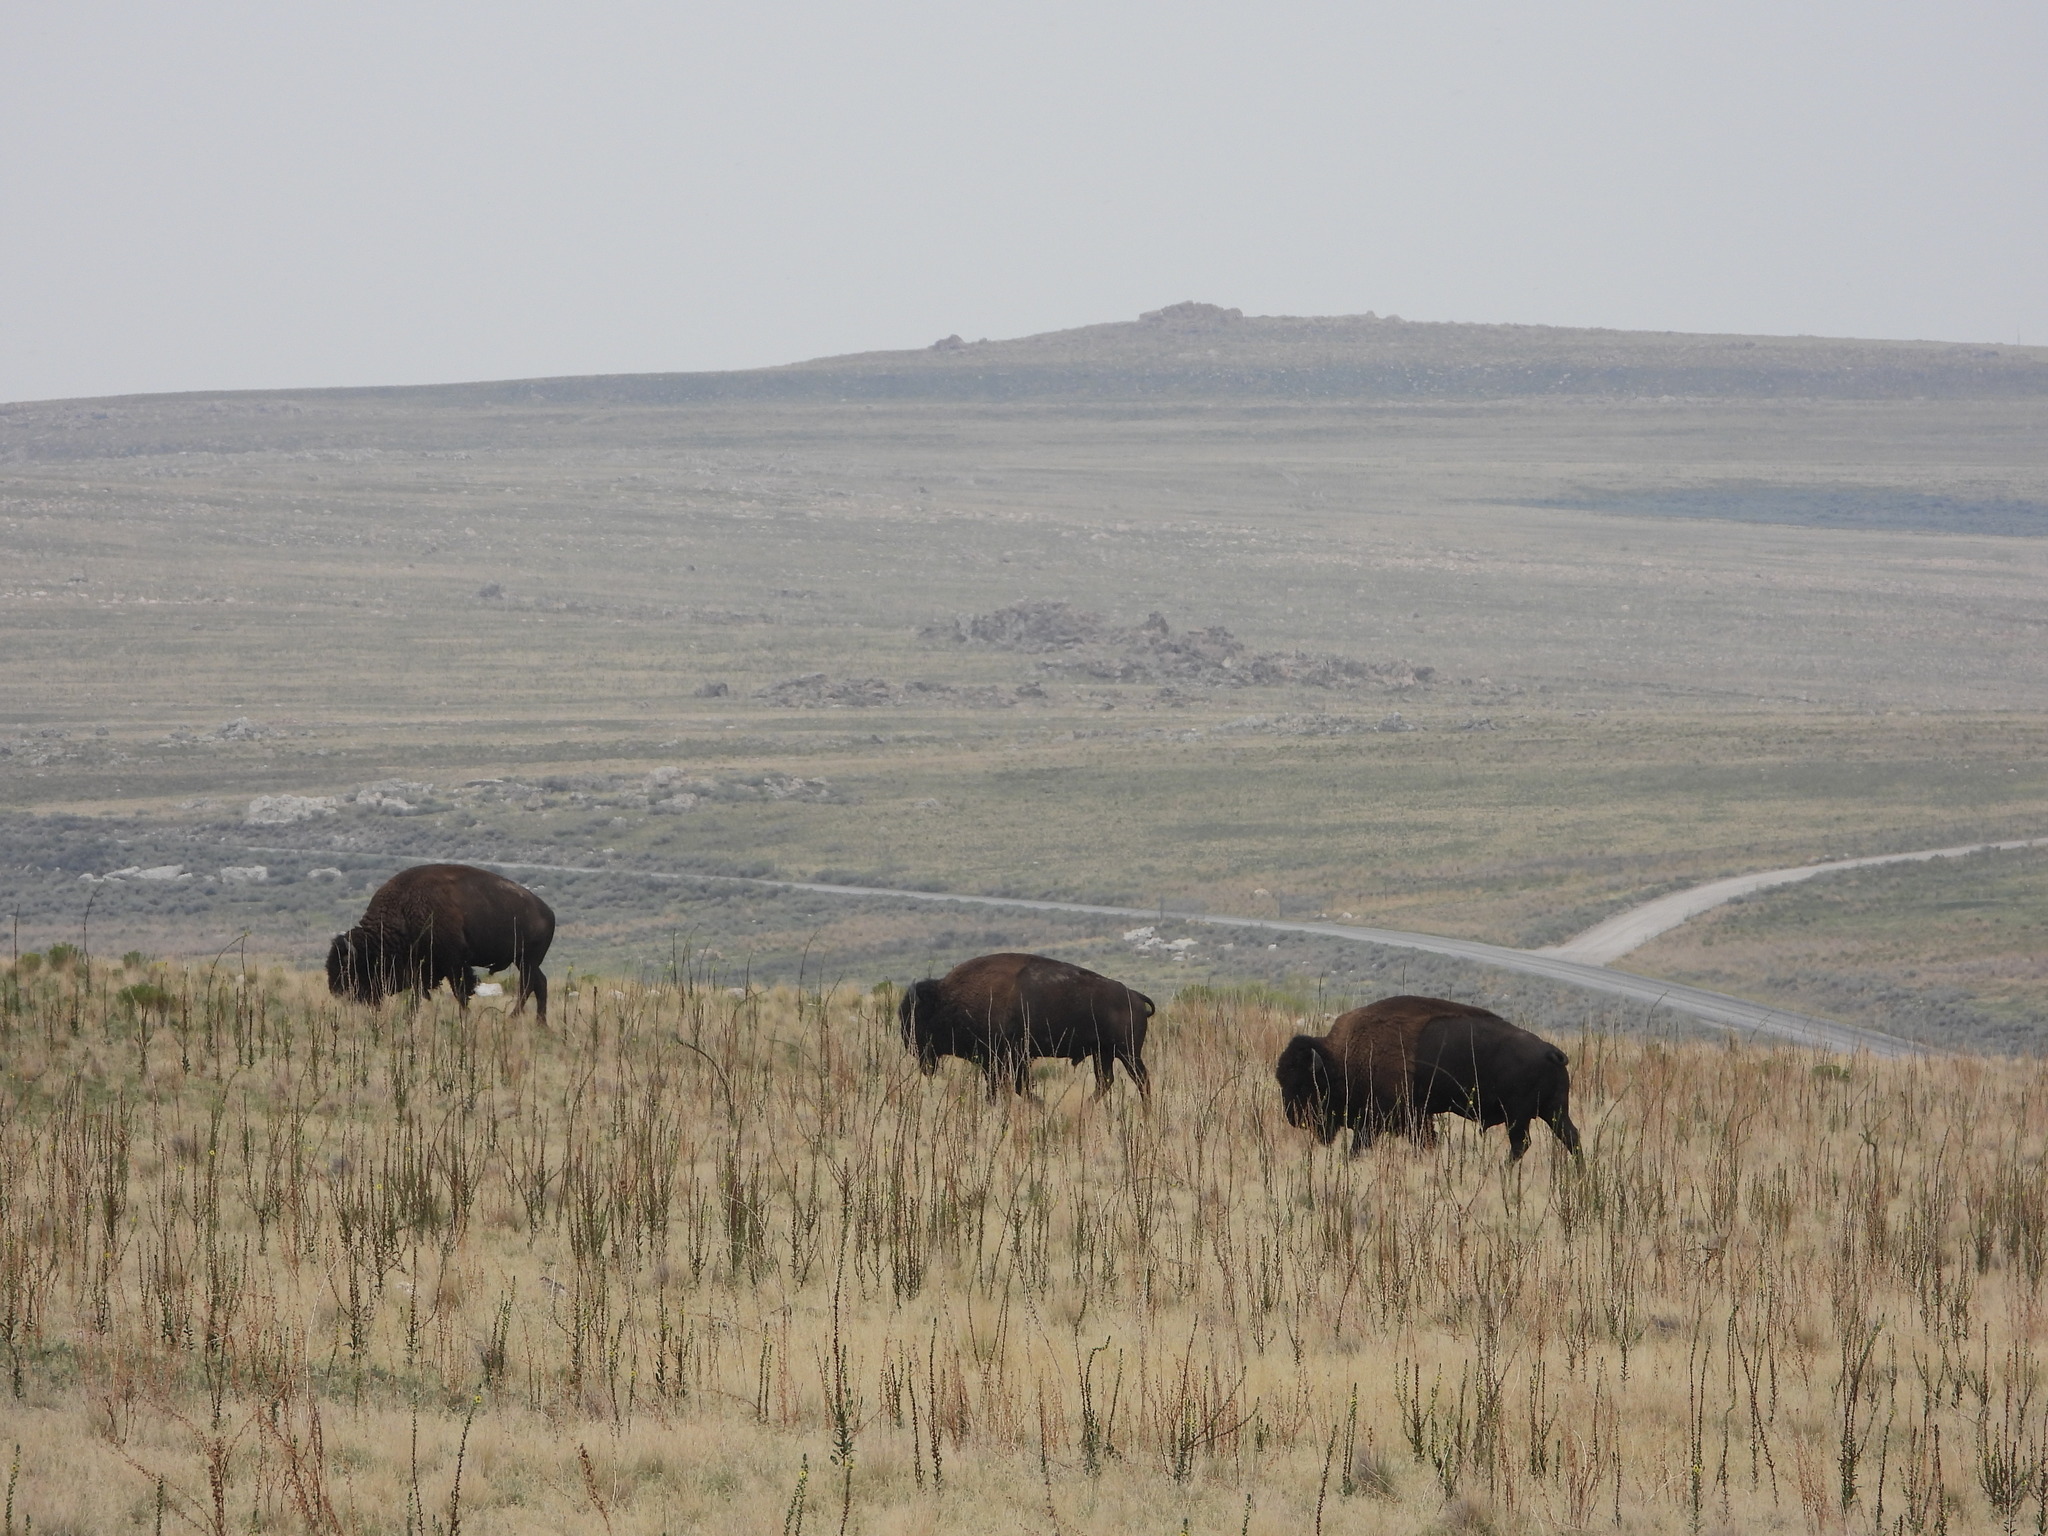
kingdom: Animalia
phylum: Chordata
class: Mammalia
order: Artiodactyla
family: Bovidae
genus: Bison
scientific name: Bison bison
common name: American bison
